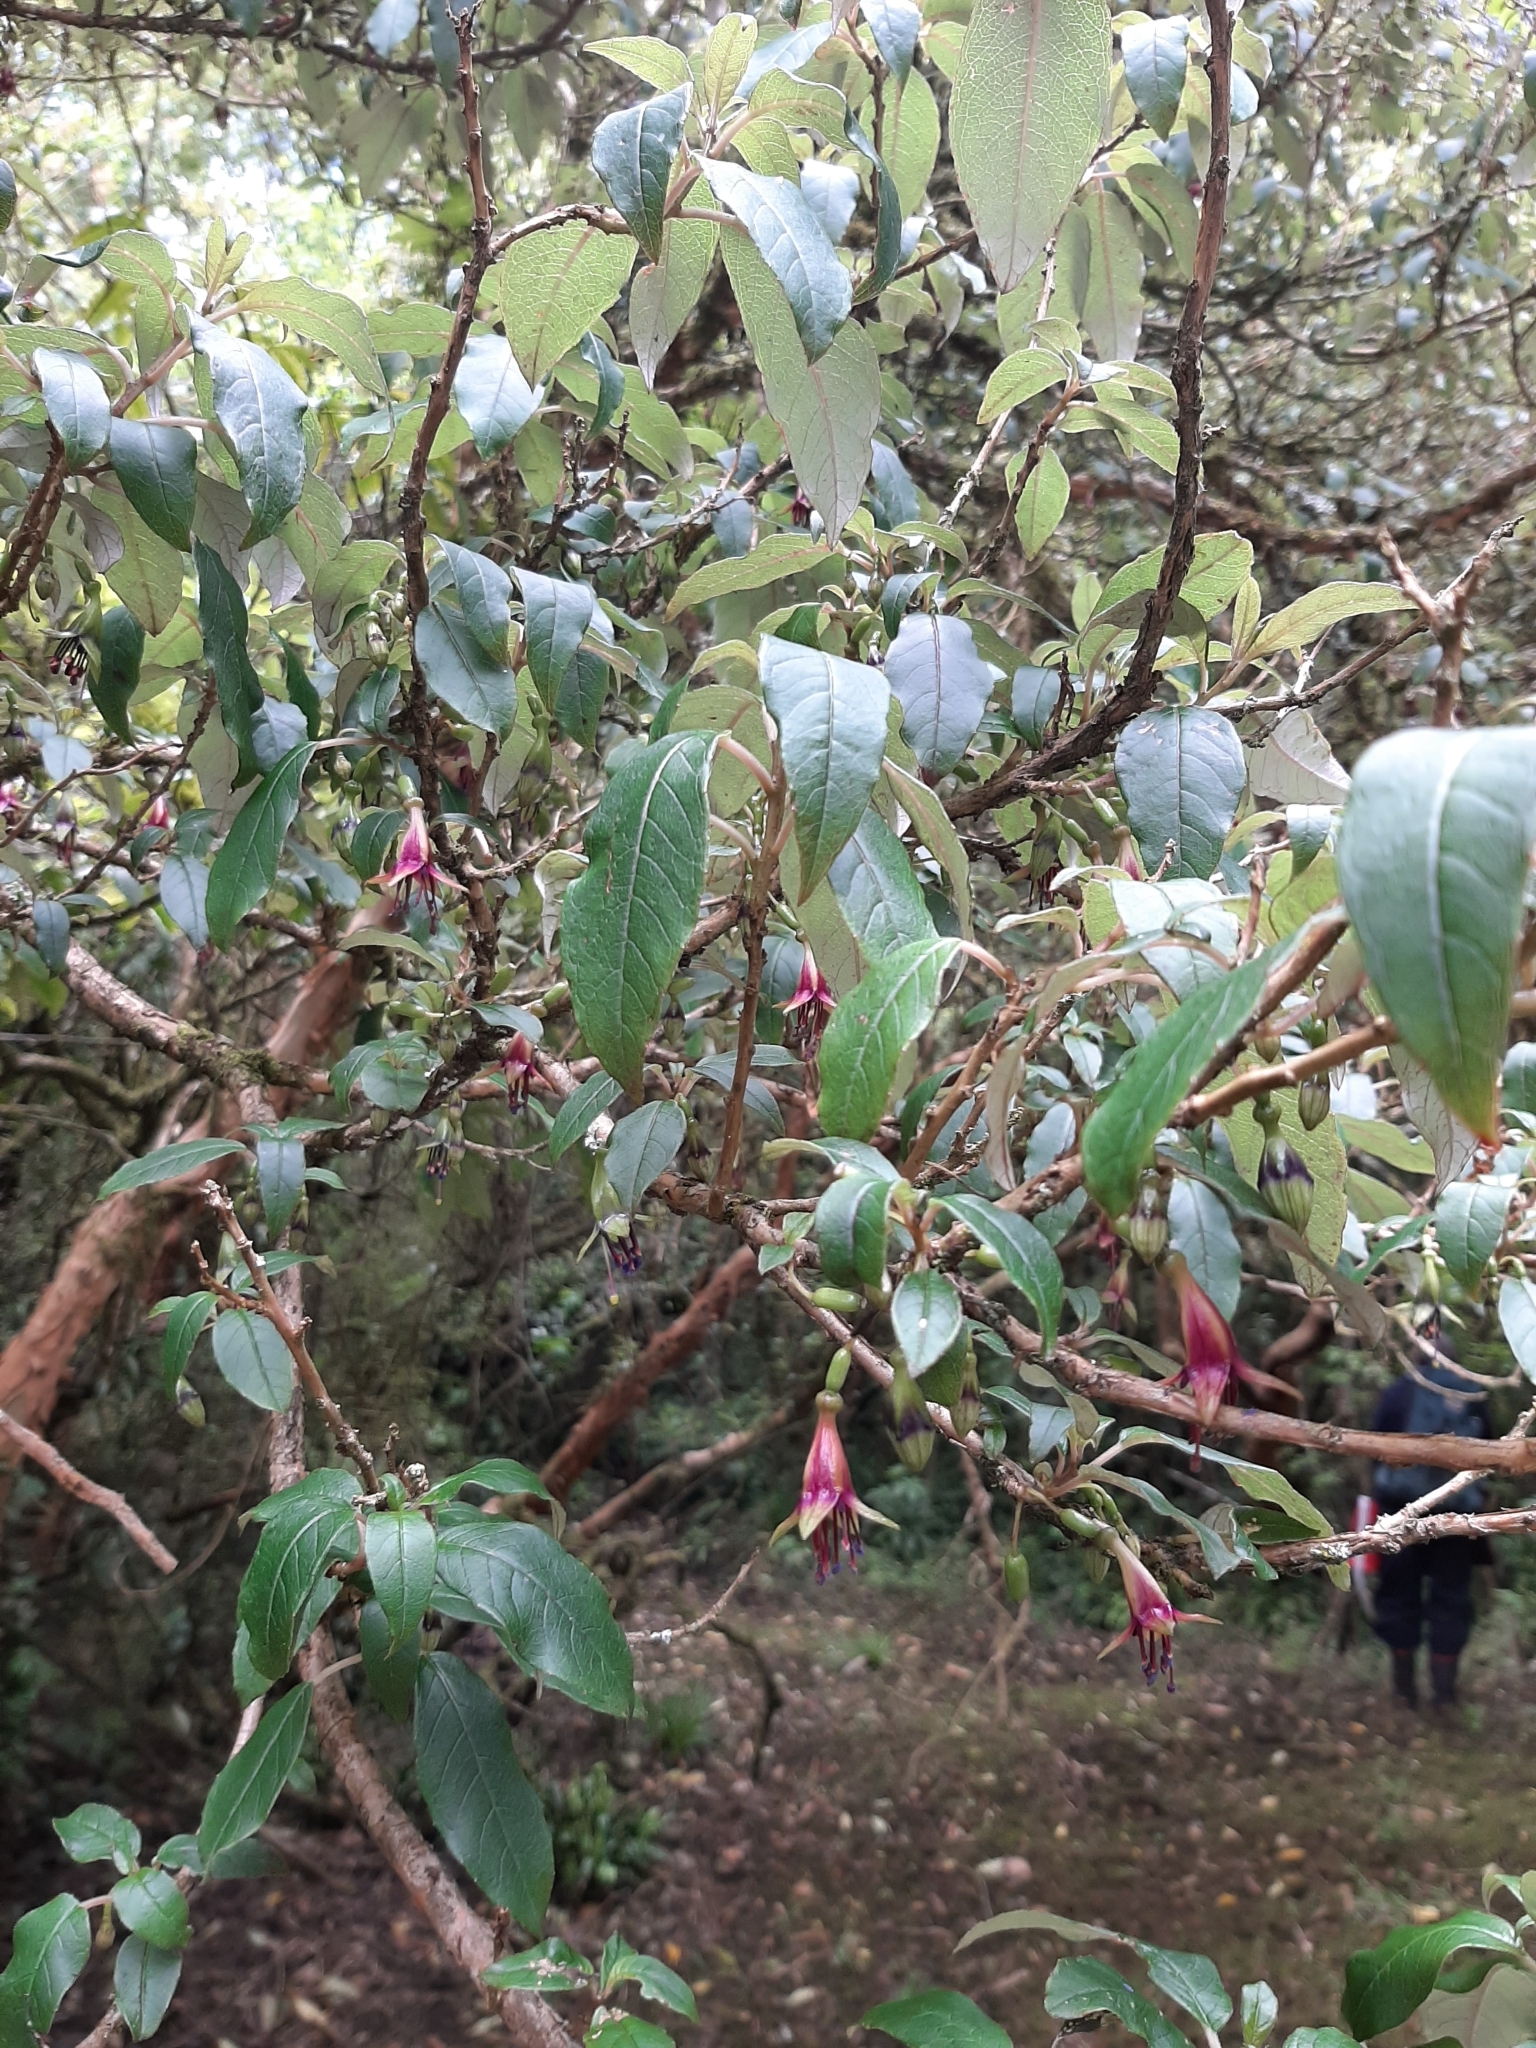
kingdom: Plantae
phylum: Tracheophyta
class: Magnoliopsida
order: Myrtales
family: Onagraceae
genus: Fuchsia
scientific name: Fuchsia excorticata
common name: Tree fuchsia
